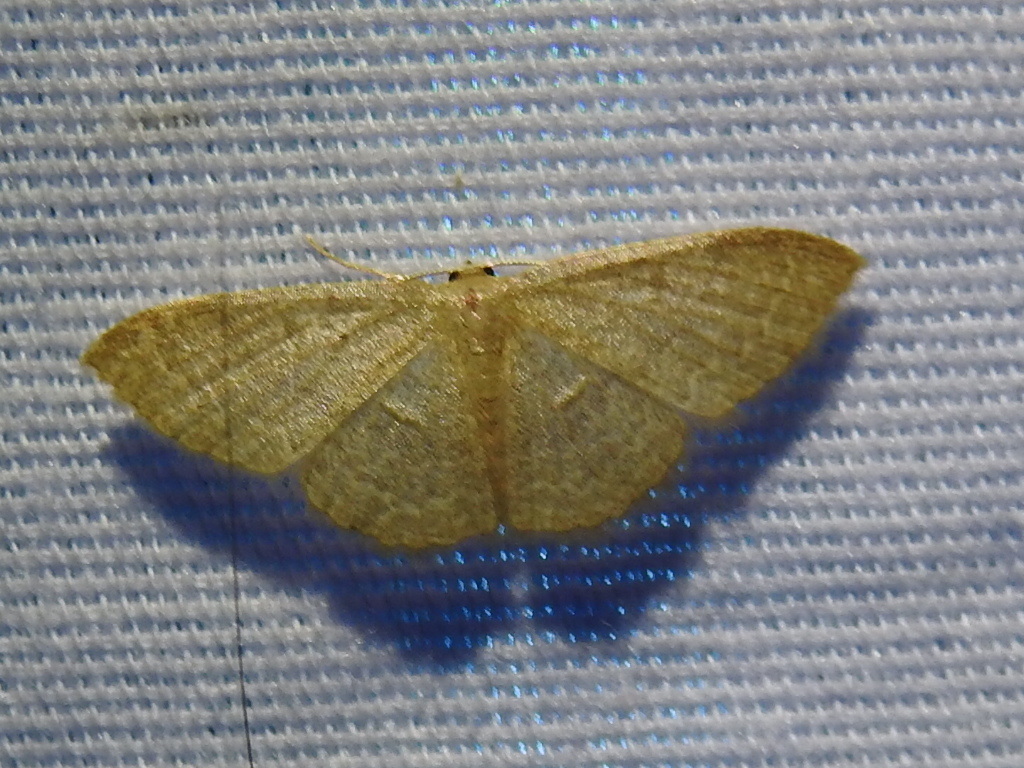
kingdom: Animalia
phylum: Arthropoda
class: Insecta
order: Lepidoptera
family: Geometridae
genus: Pleuroprucha
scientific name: Pleuroprucha insulsaria
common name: Common tan wave
